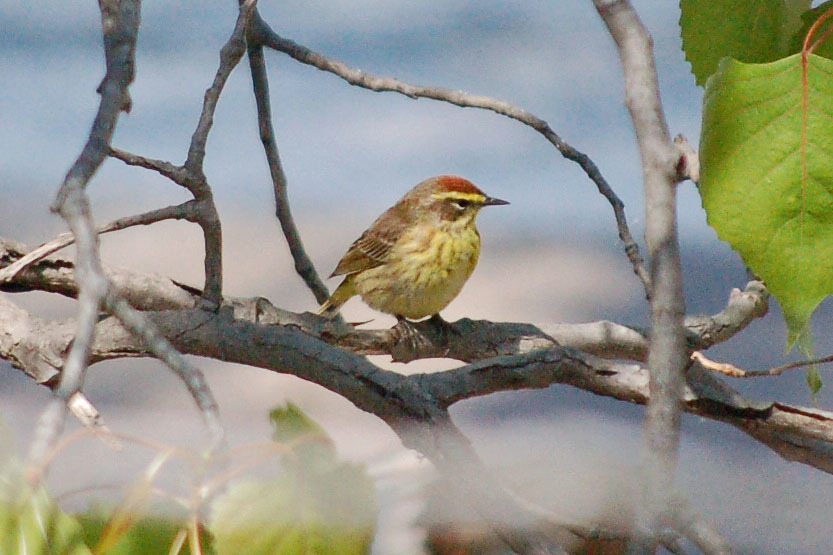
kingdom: Animalia
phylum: Chordata
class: Aves
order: Passeriformes
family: Parulidae
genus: Setophaga
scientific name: Setophaga palmarum
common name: Palm warbler
